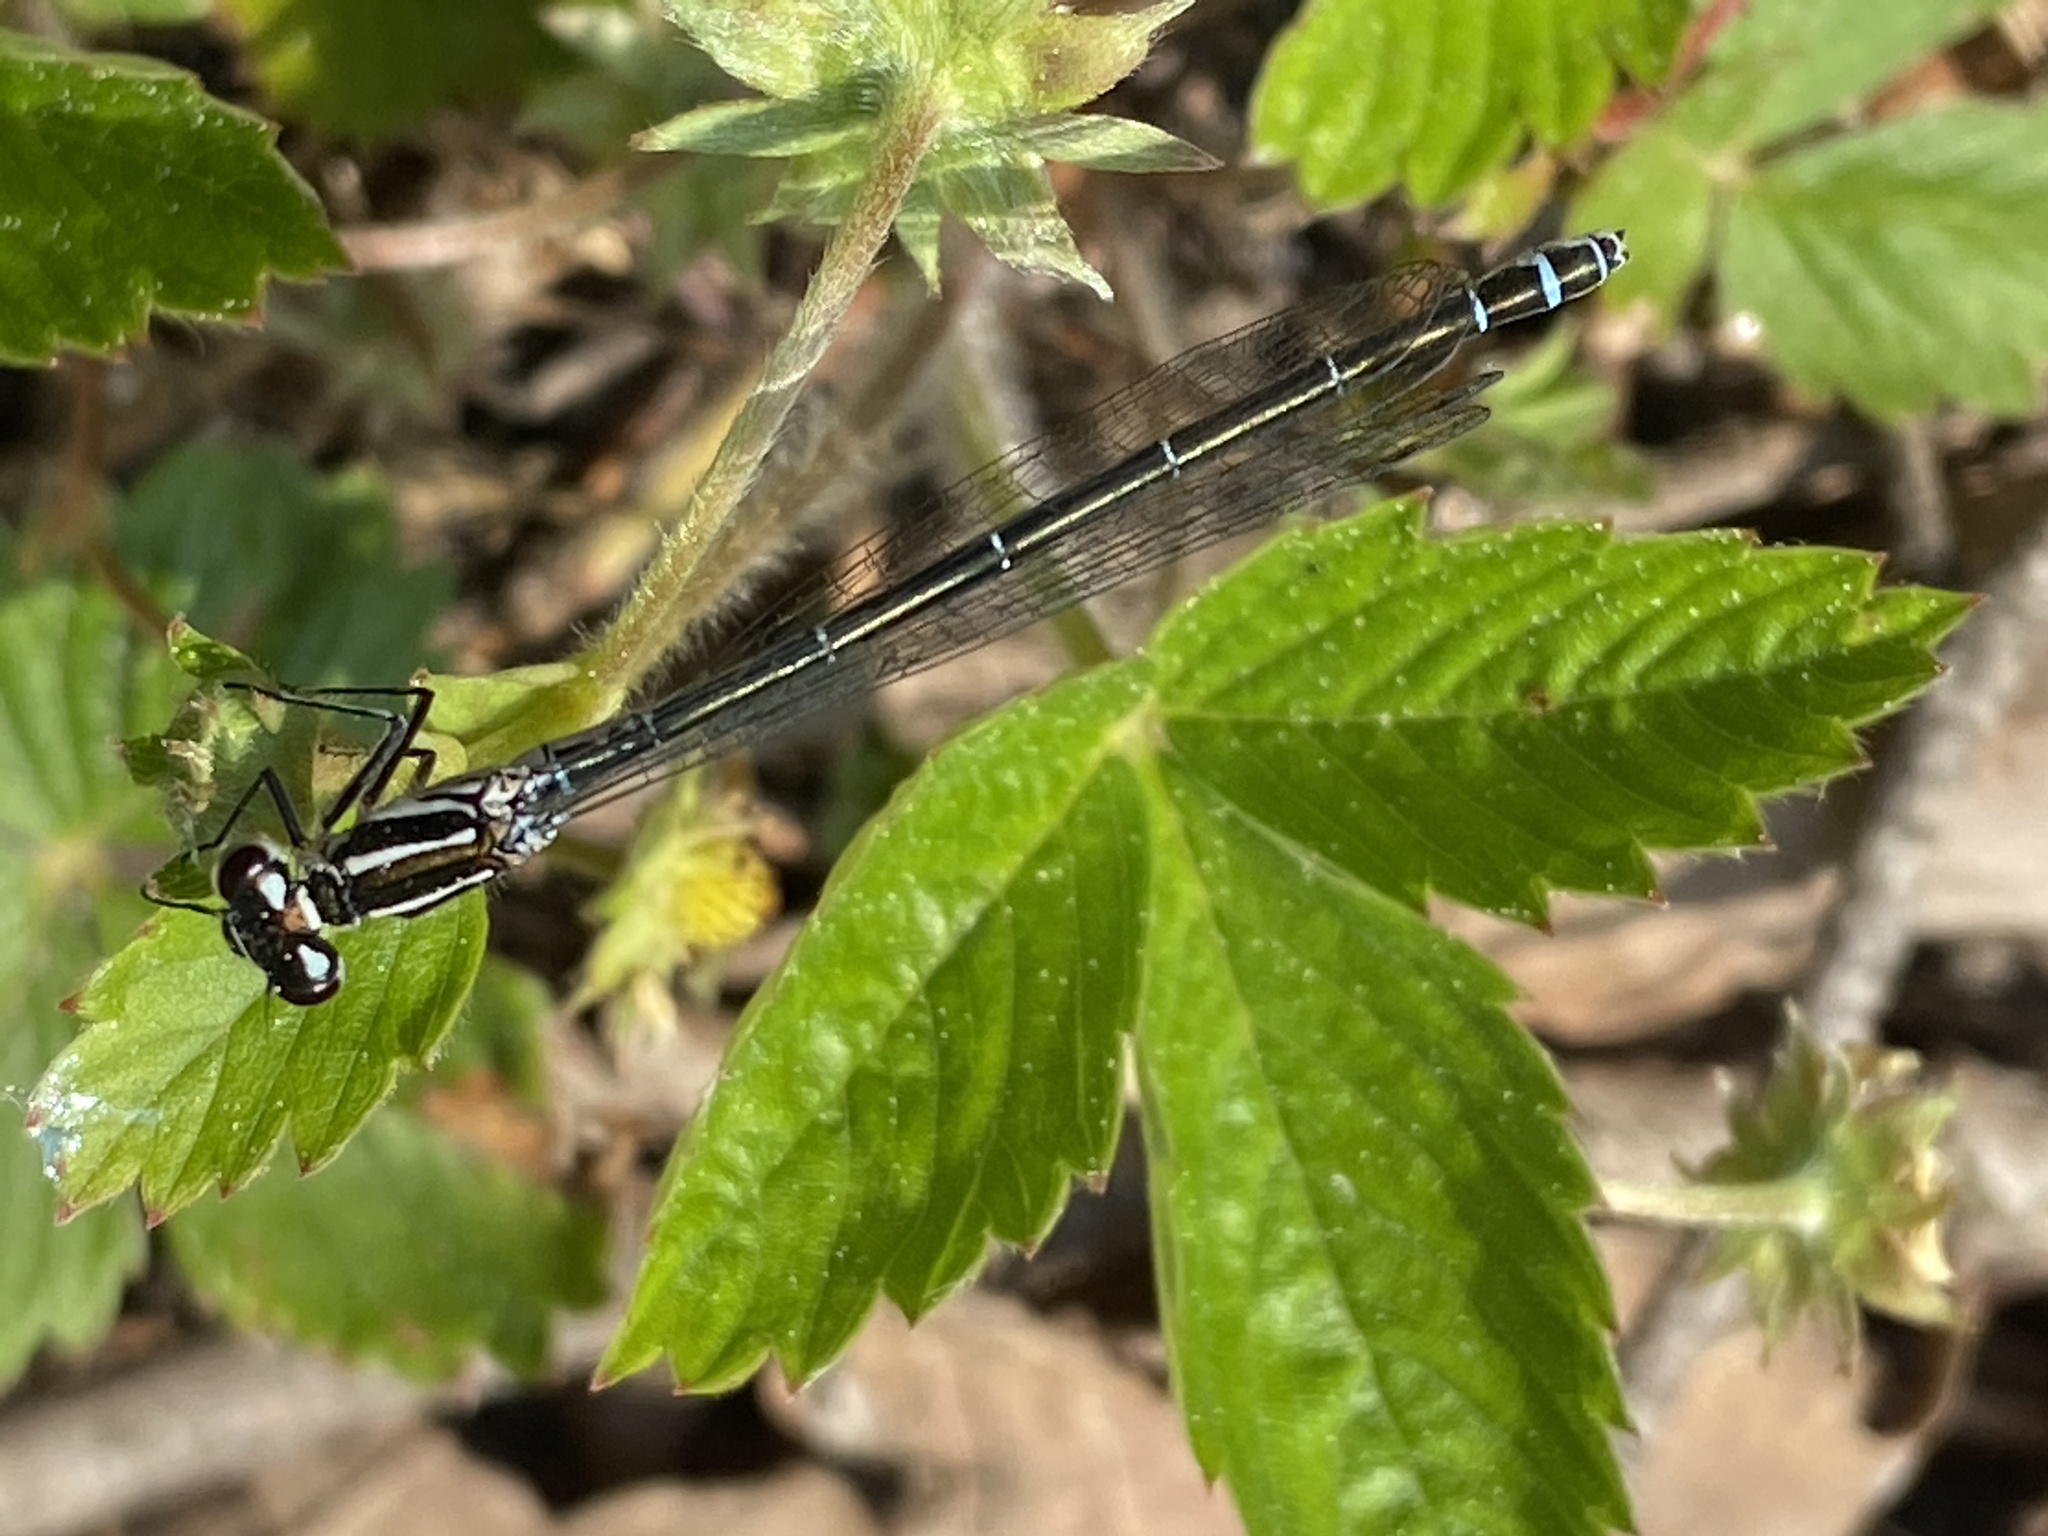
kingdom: Animalia
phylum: Arthropoda
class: Insecta
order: Odonata
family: Coenagrionidae
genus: Coenagrion
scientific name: Coenagrion puella
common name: Azure damselfly
